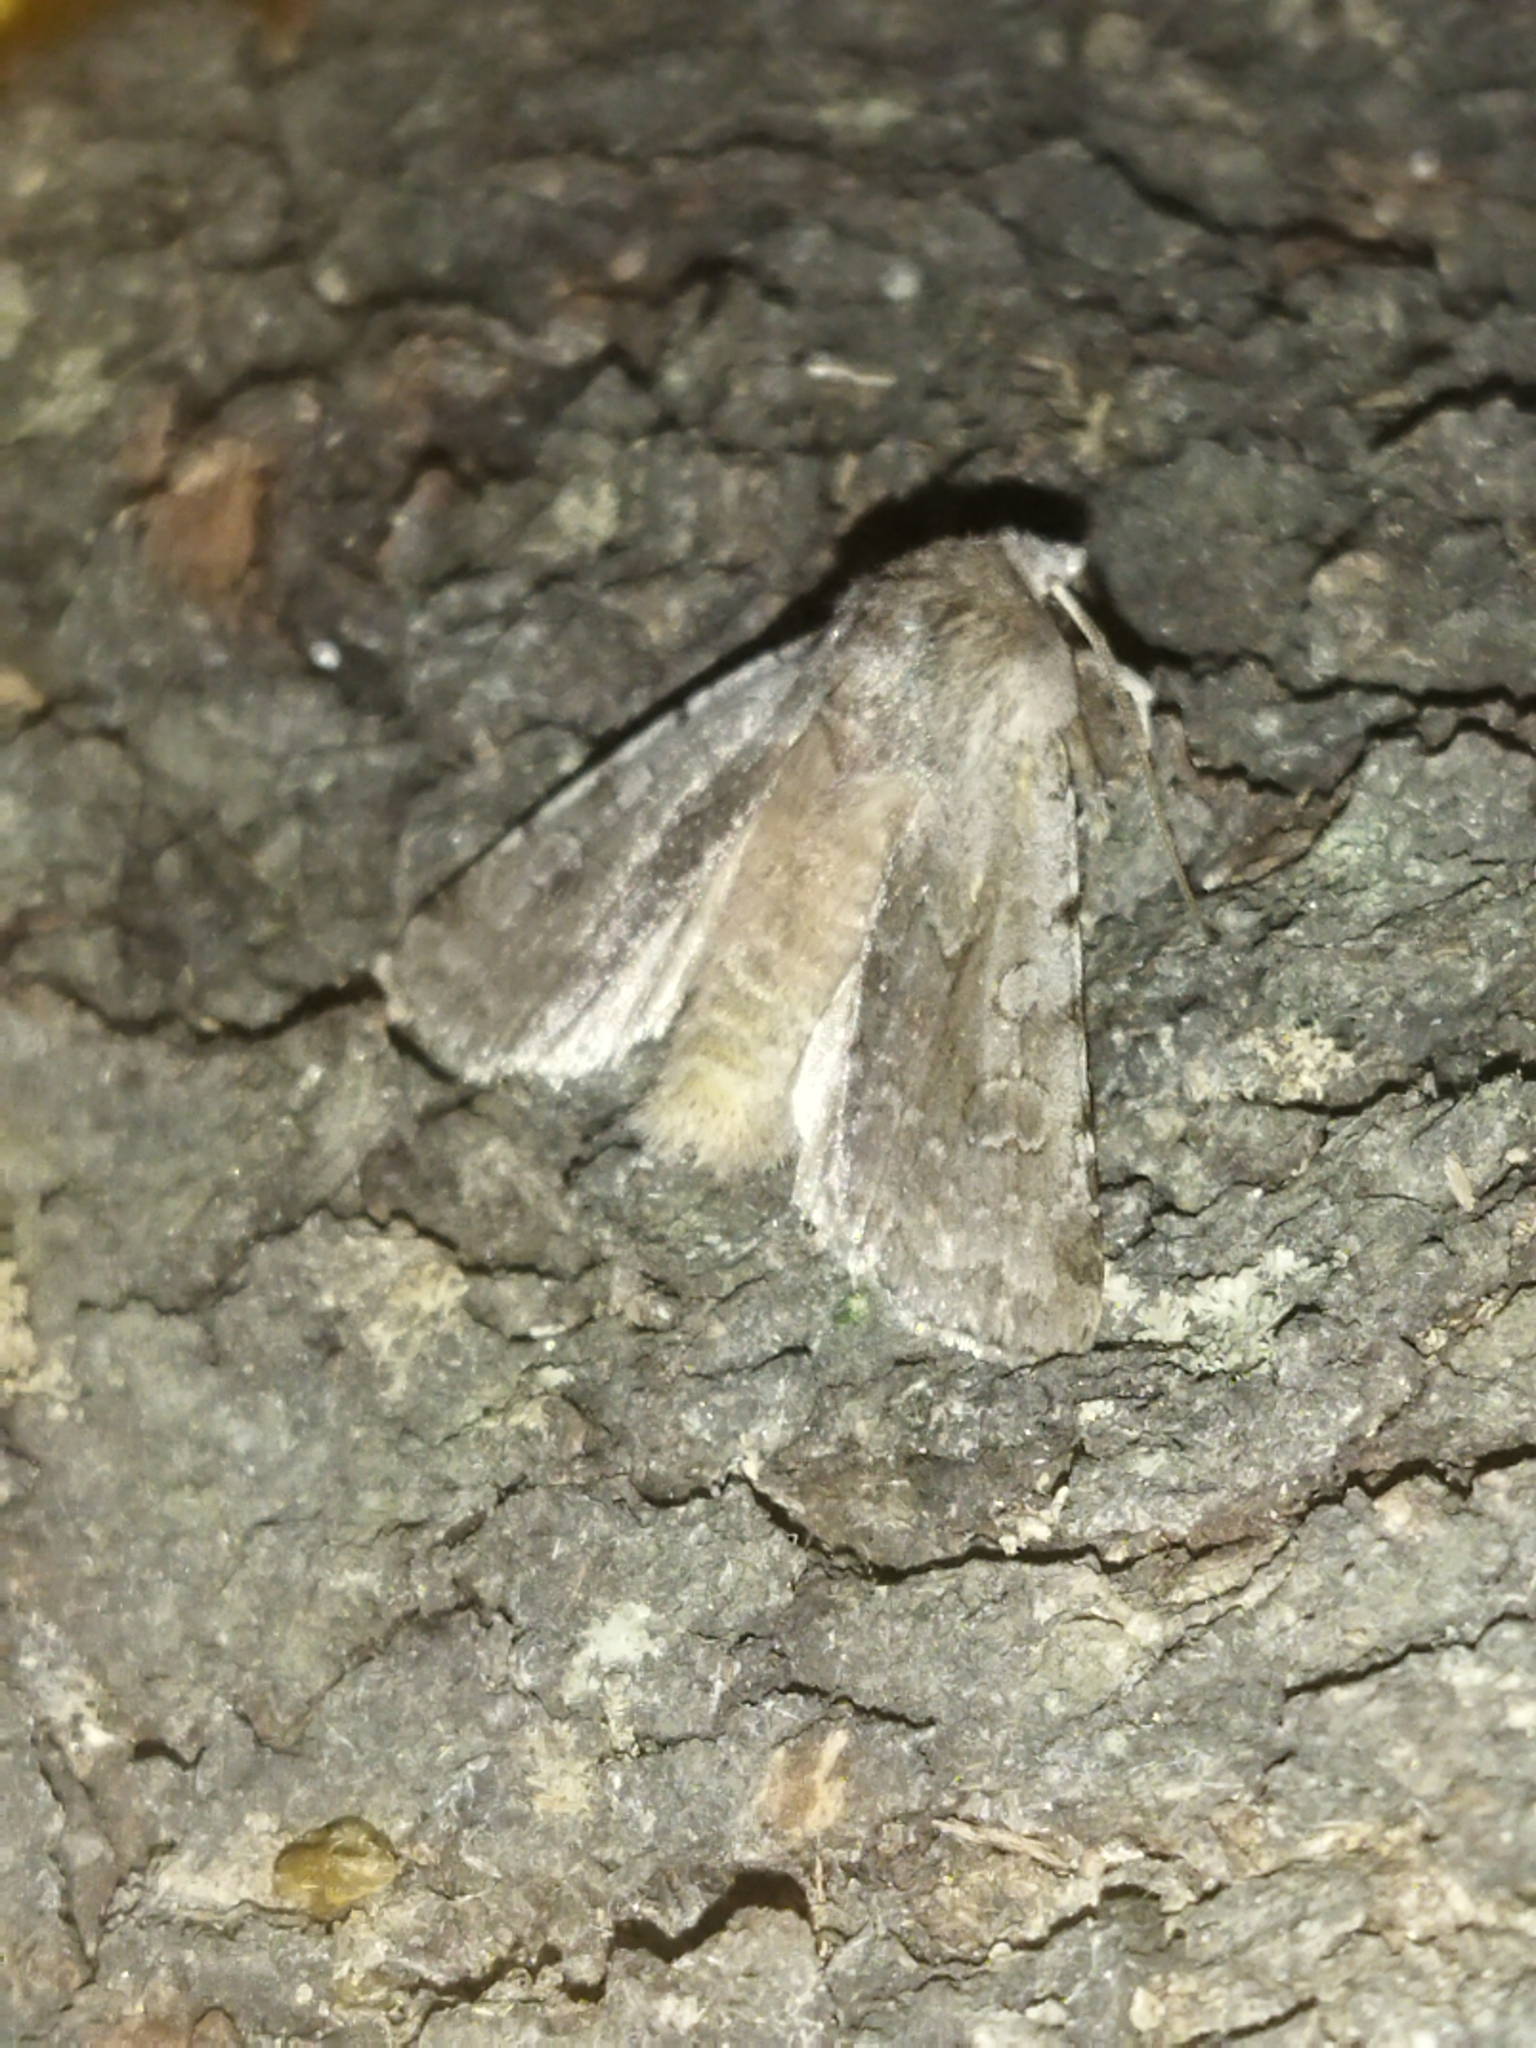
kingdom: Animalia
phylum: Arthropoda
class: Insecta
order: Lepidoptera
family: Noctuidae
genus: Cerastis
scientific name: Cerastis rubricosa
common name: Red chestnut
